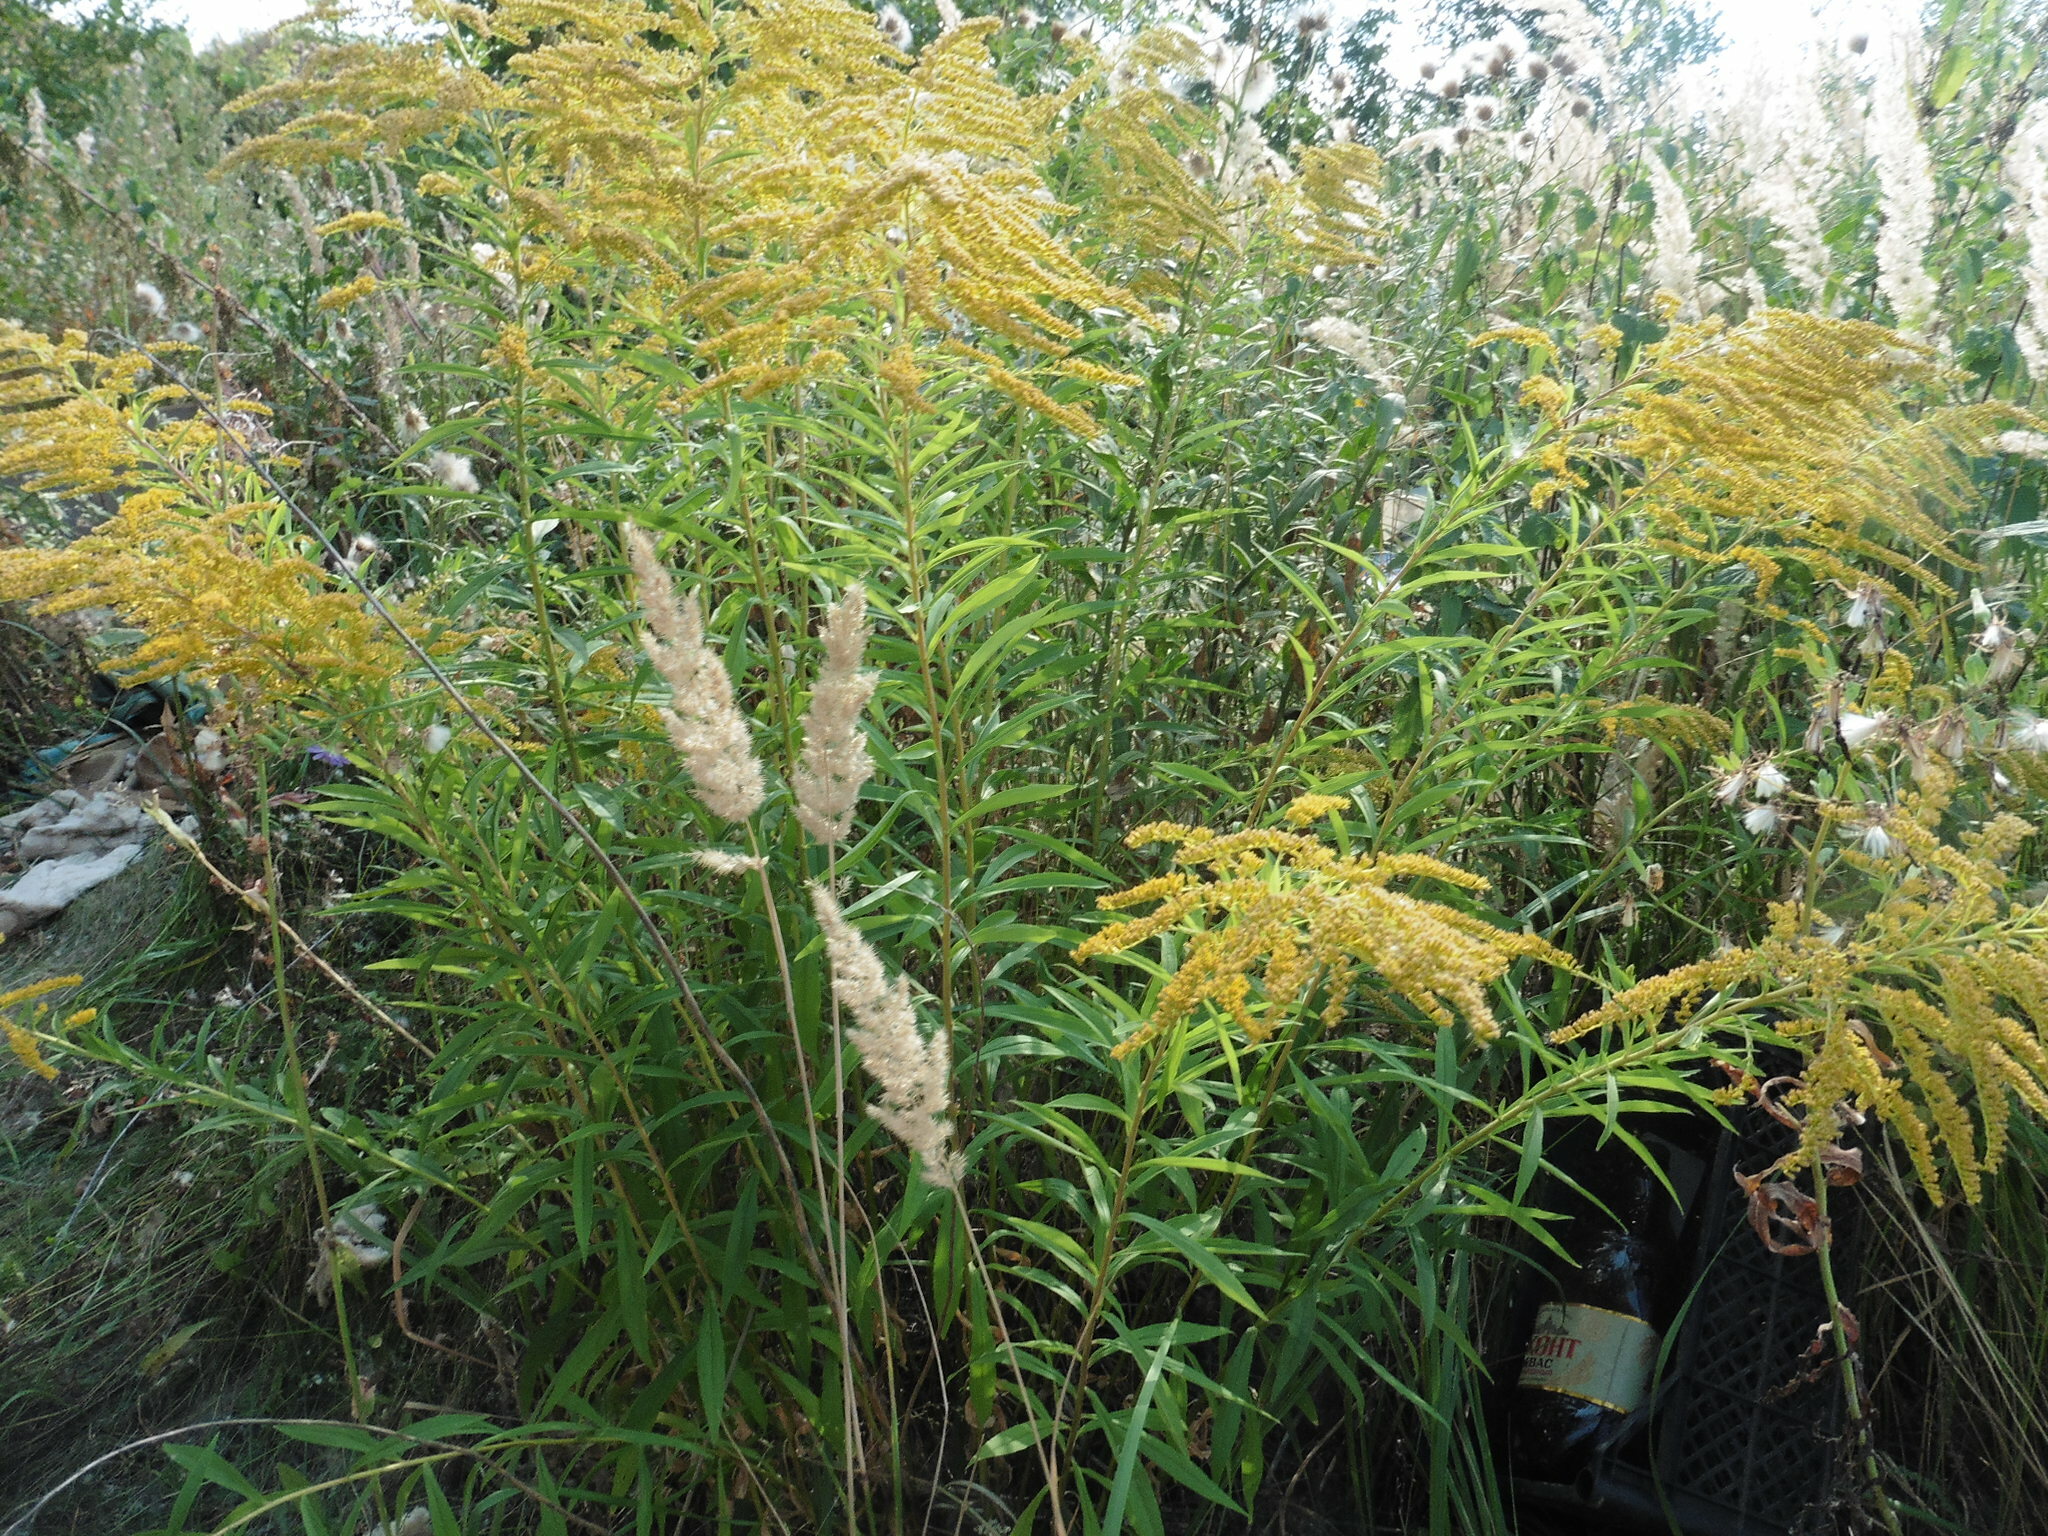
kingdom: Plantae
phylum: Tracheophyta
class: Magnoliopsida
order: Asterales
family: Asteraceae
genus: Solidago
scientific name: Solidago canadensis
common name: Canada goldenrod
